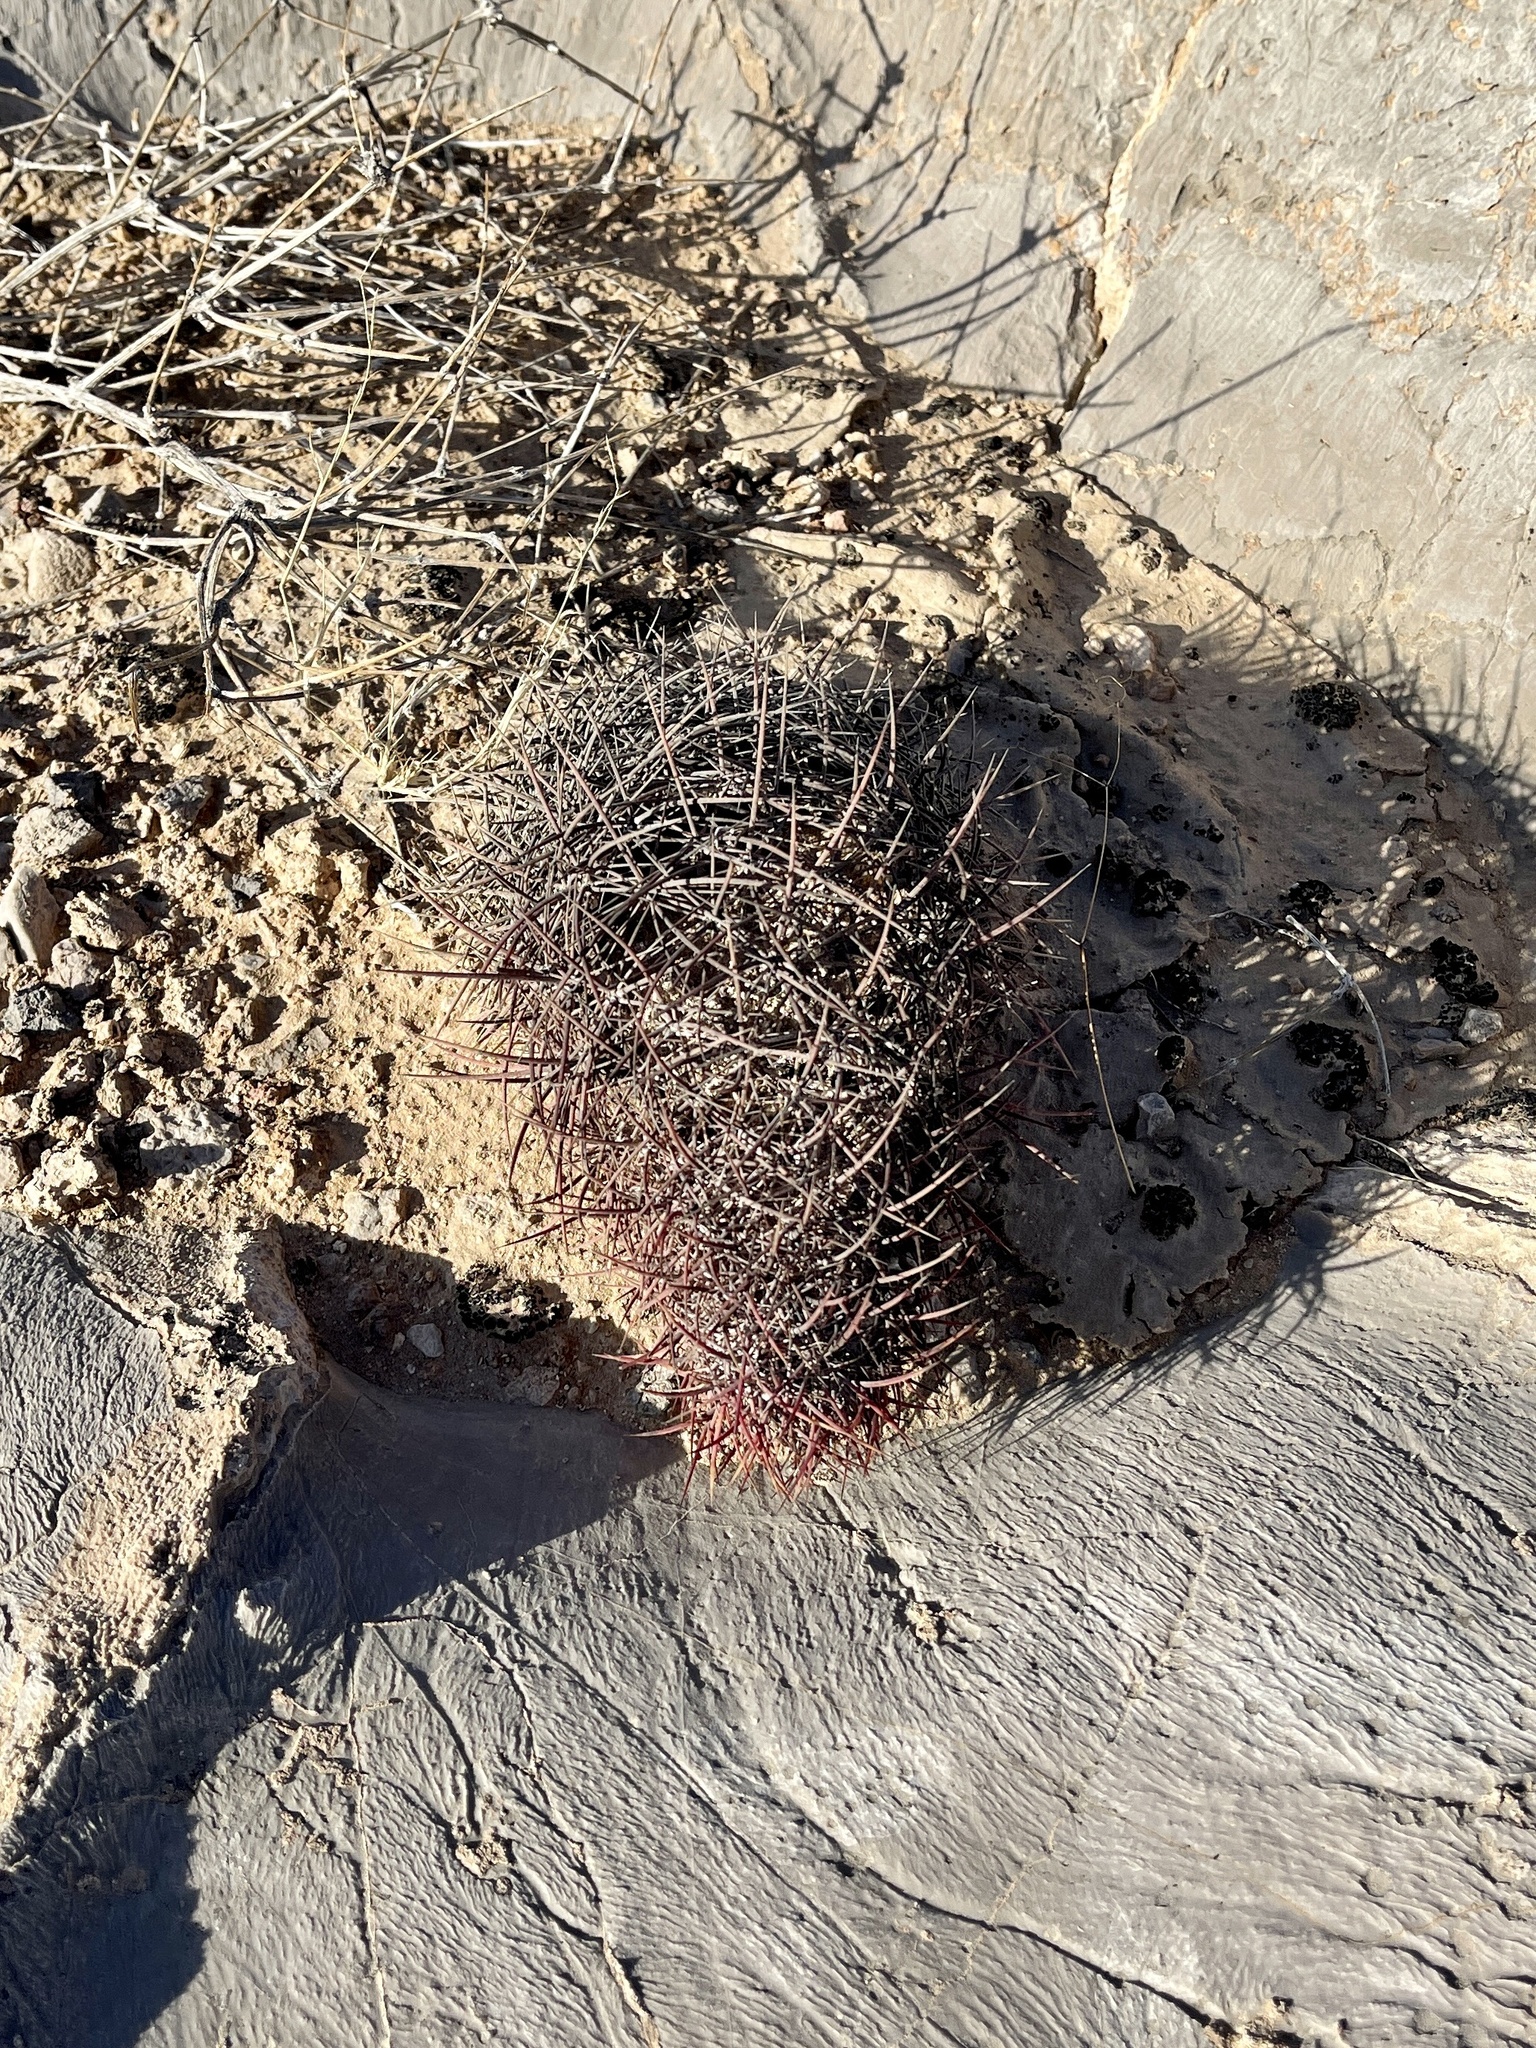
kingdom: Plantae
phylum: Tracheophyta
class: Magnoliopsida
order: Caryophyllales
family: Cactaceae
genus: Sclerocactus
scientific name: Sclerocactus johnsonii
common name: Eight-spine fishhook cactus
